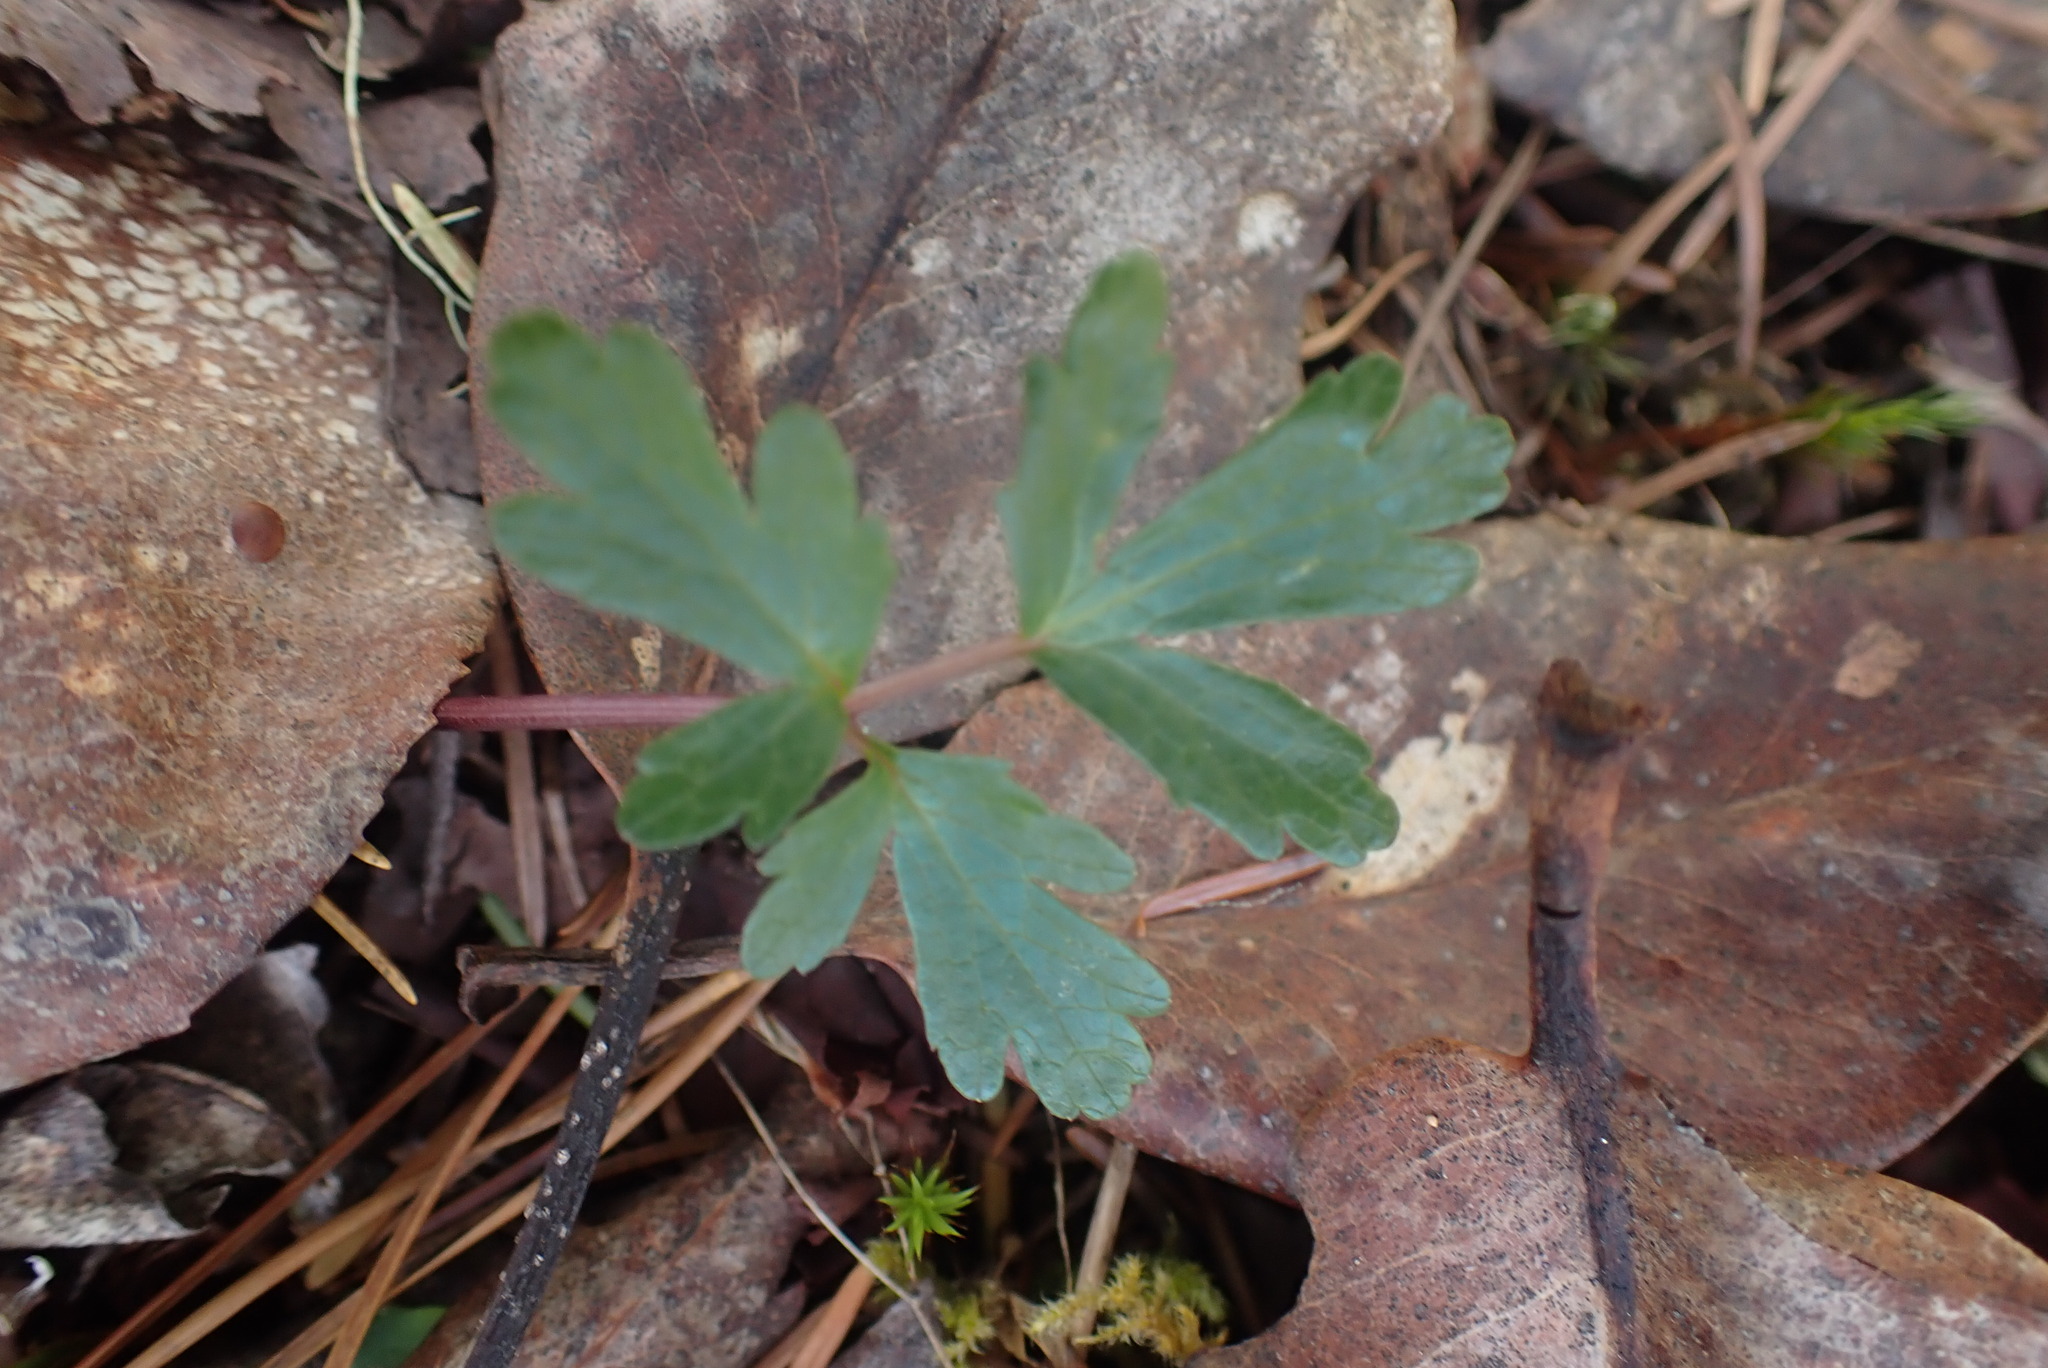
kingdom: Plantae
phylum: Tracheophyta
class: Magnoliopsida
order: Apiales
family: Apiaceae
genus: Sanicula
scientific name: Sanicula graveolens
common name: Sierra sanicle
